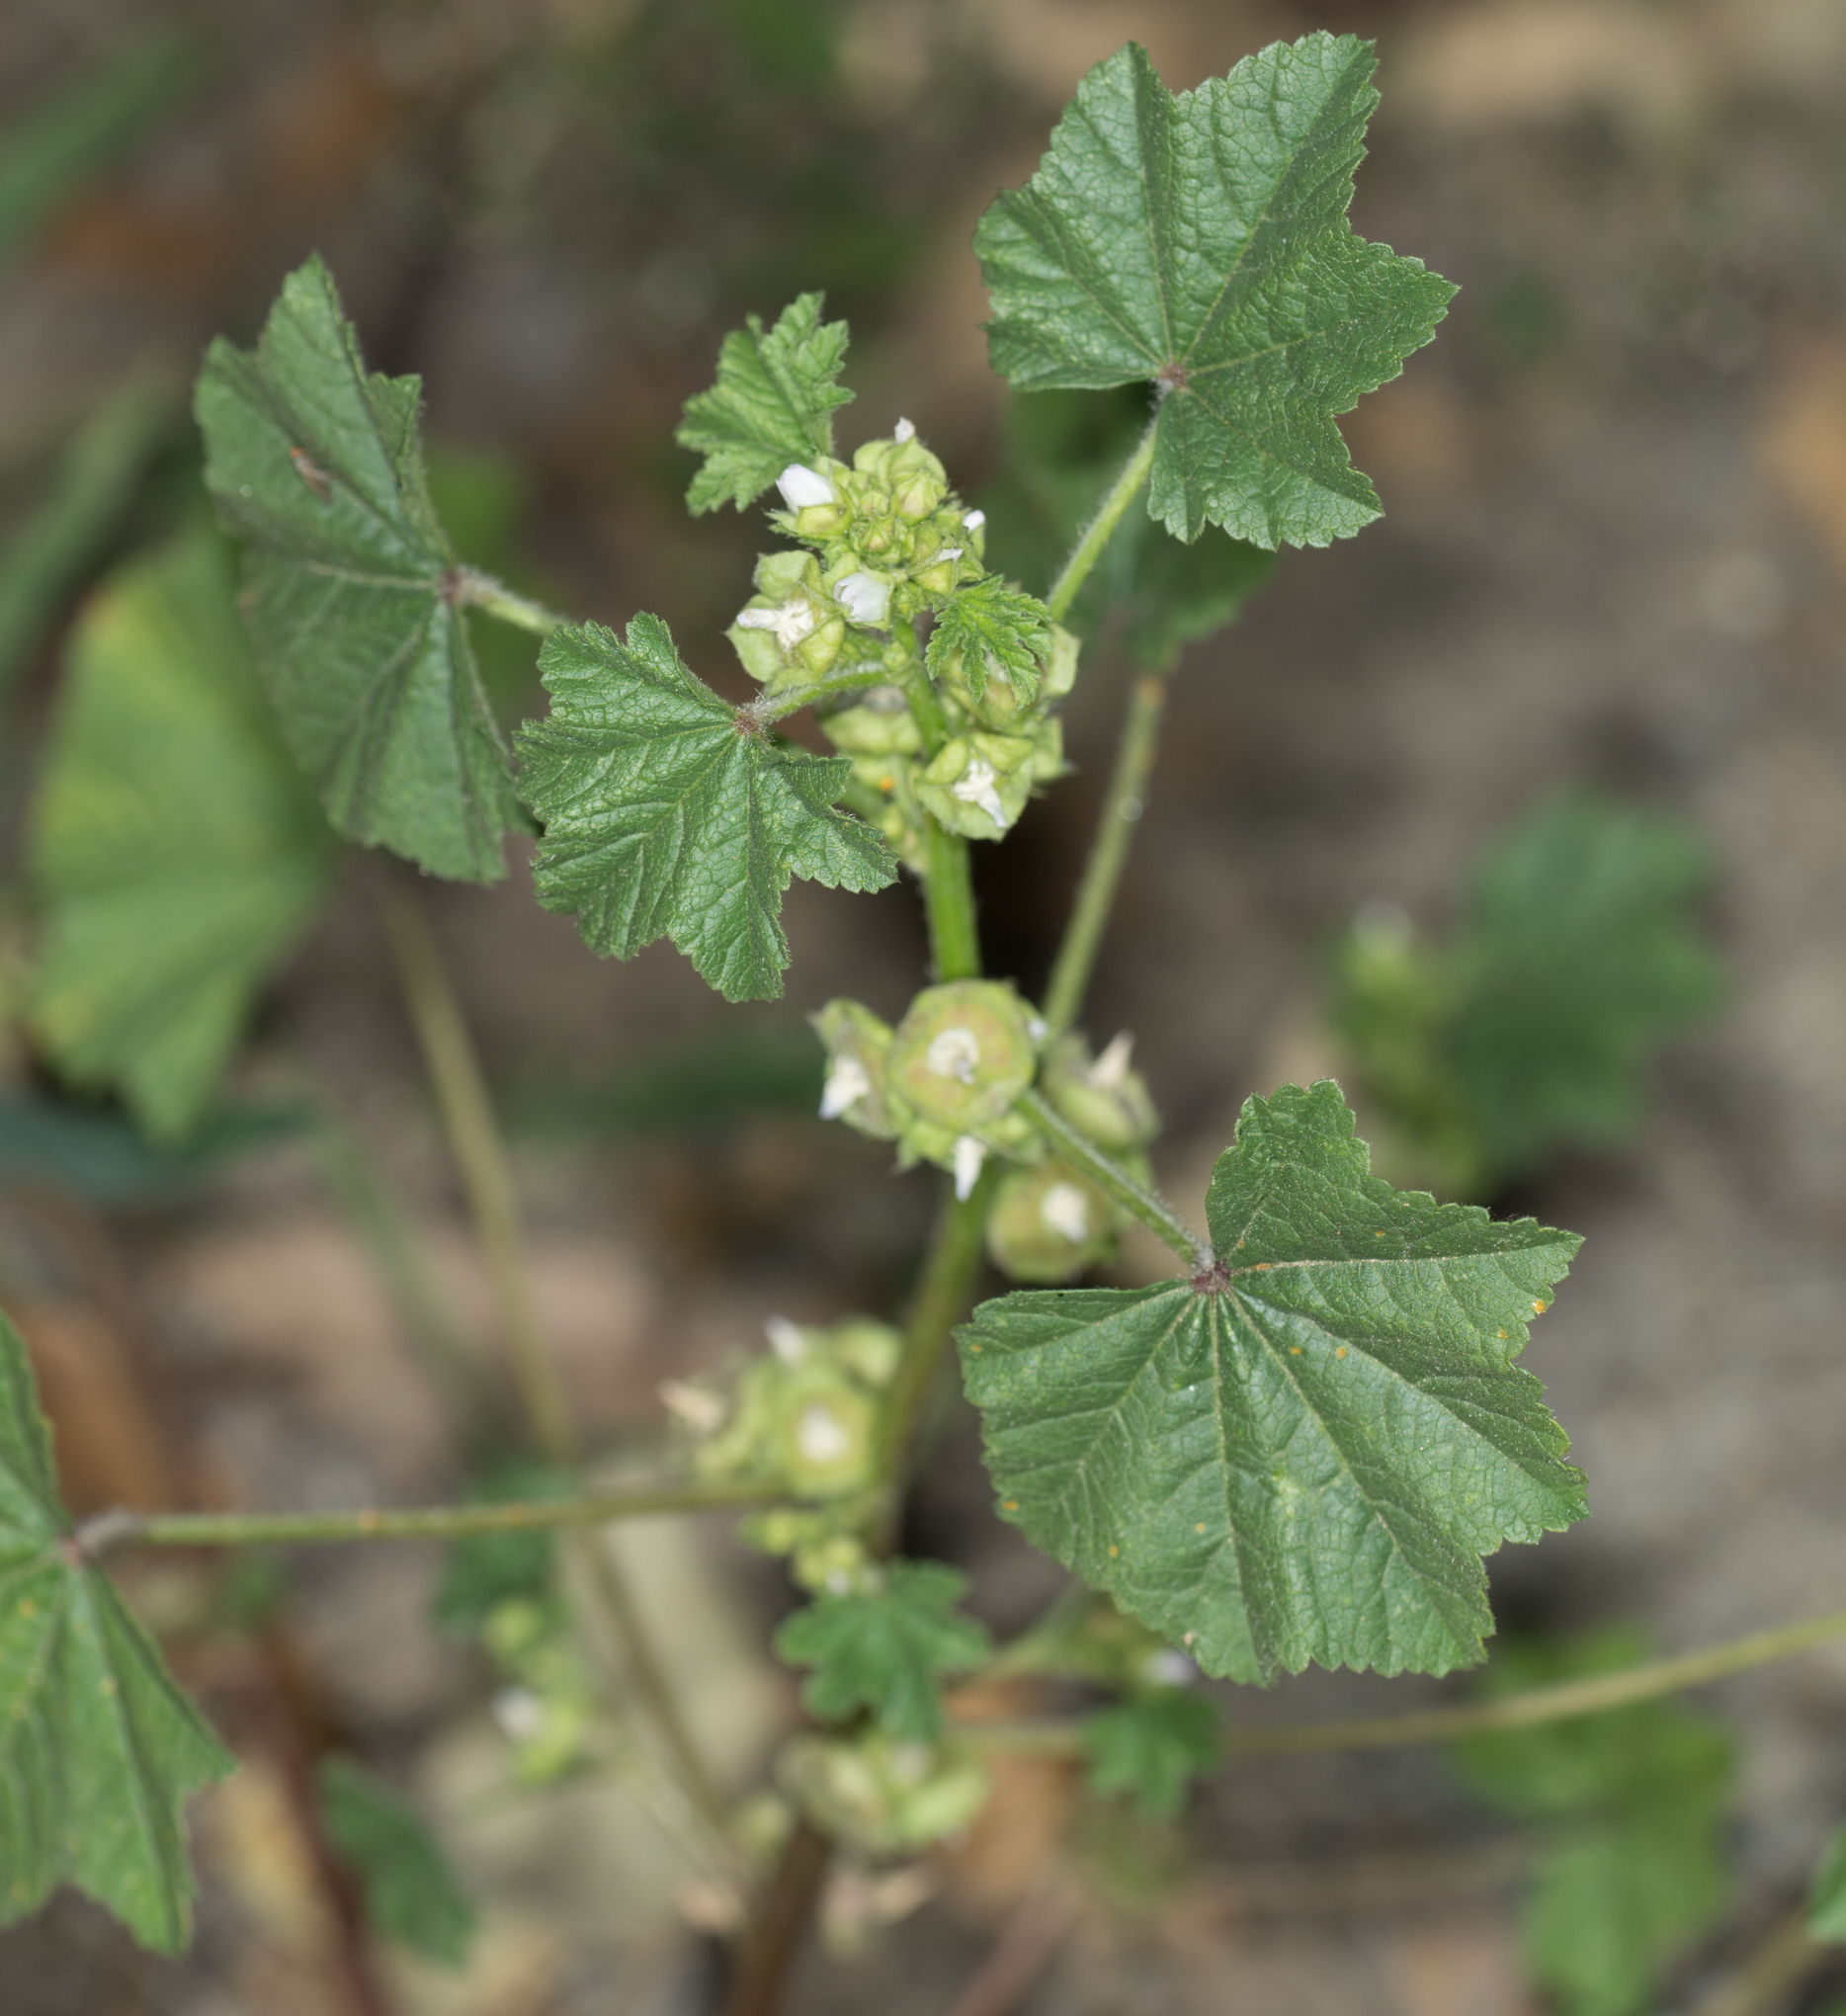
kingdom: Plantae
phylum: Tracheophyta
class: Magnoliopsida
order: Malvales
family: Malvaceae
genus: Malva
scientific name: Malva parviflora
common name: Least mallow
